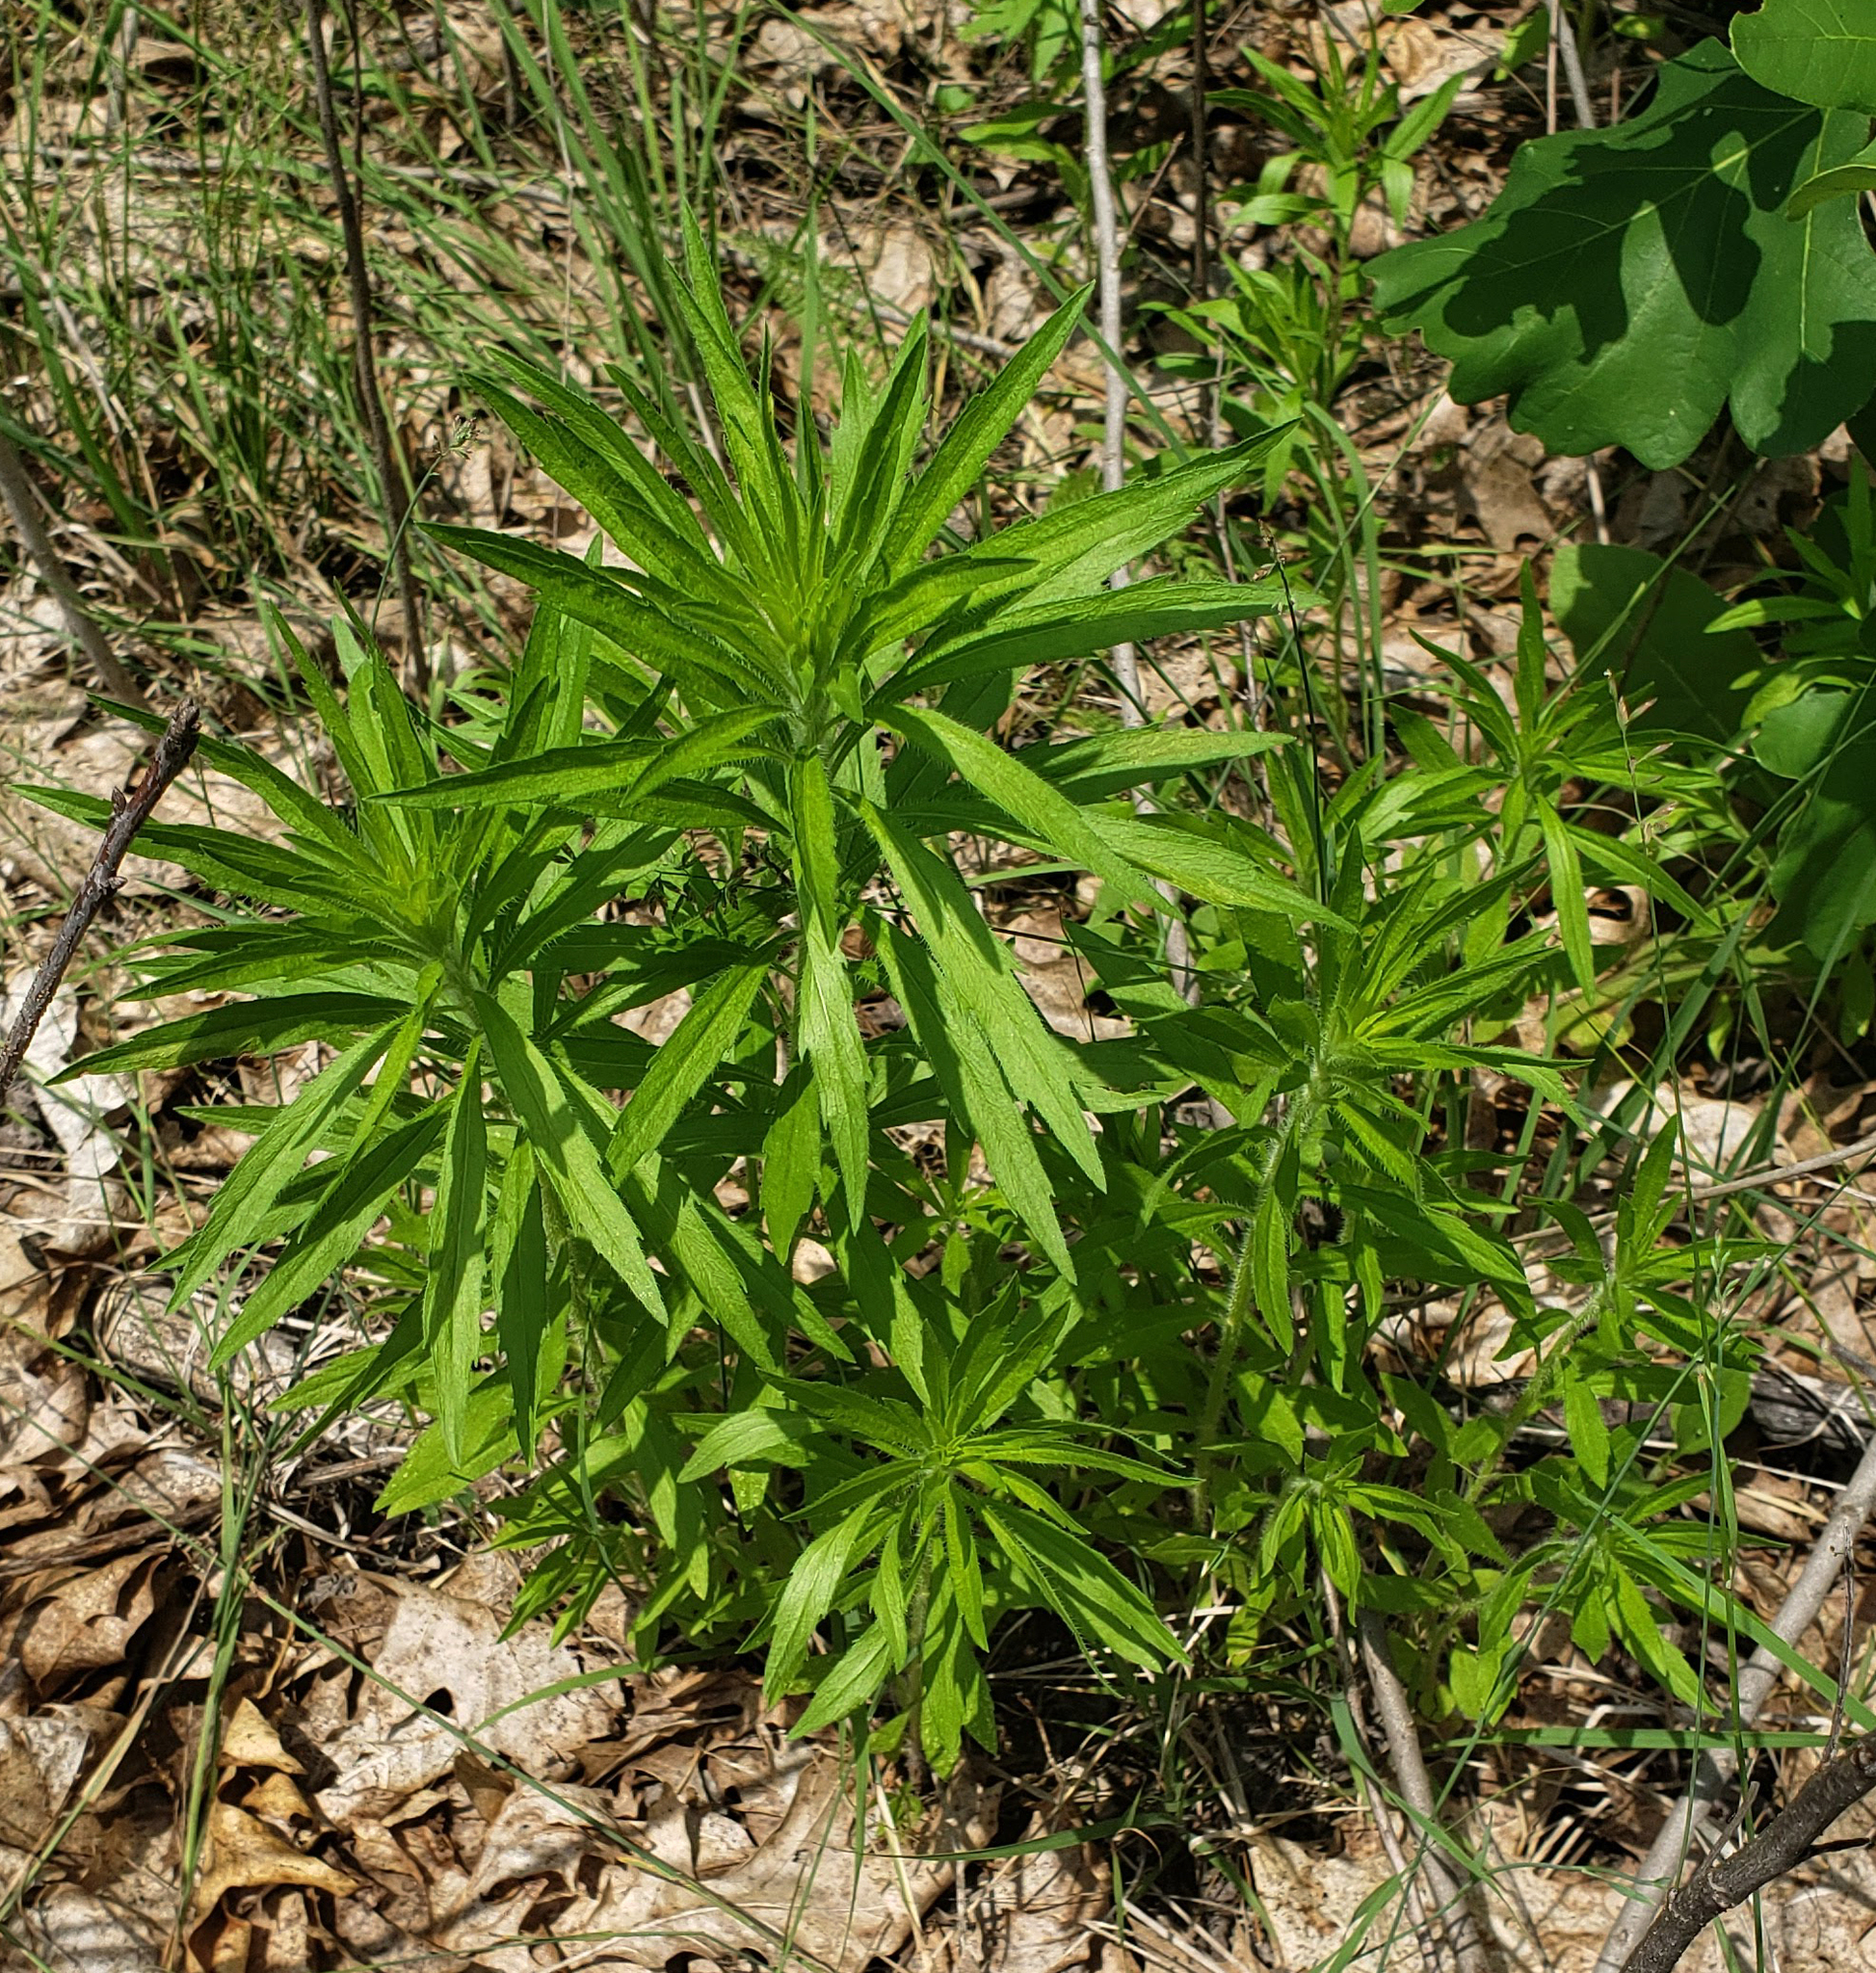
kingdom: Plantae
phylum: Tracheophyta
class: Magnoliopsida
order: Asterales
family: Asteraceae
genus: Erigeron
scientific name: Erigeron canadensis
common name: Canadian fleabane
